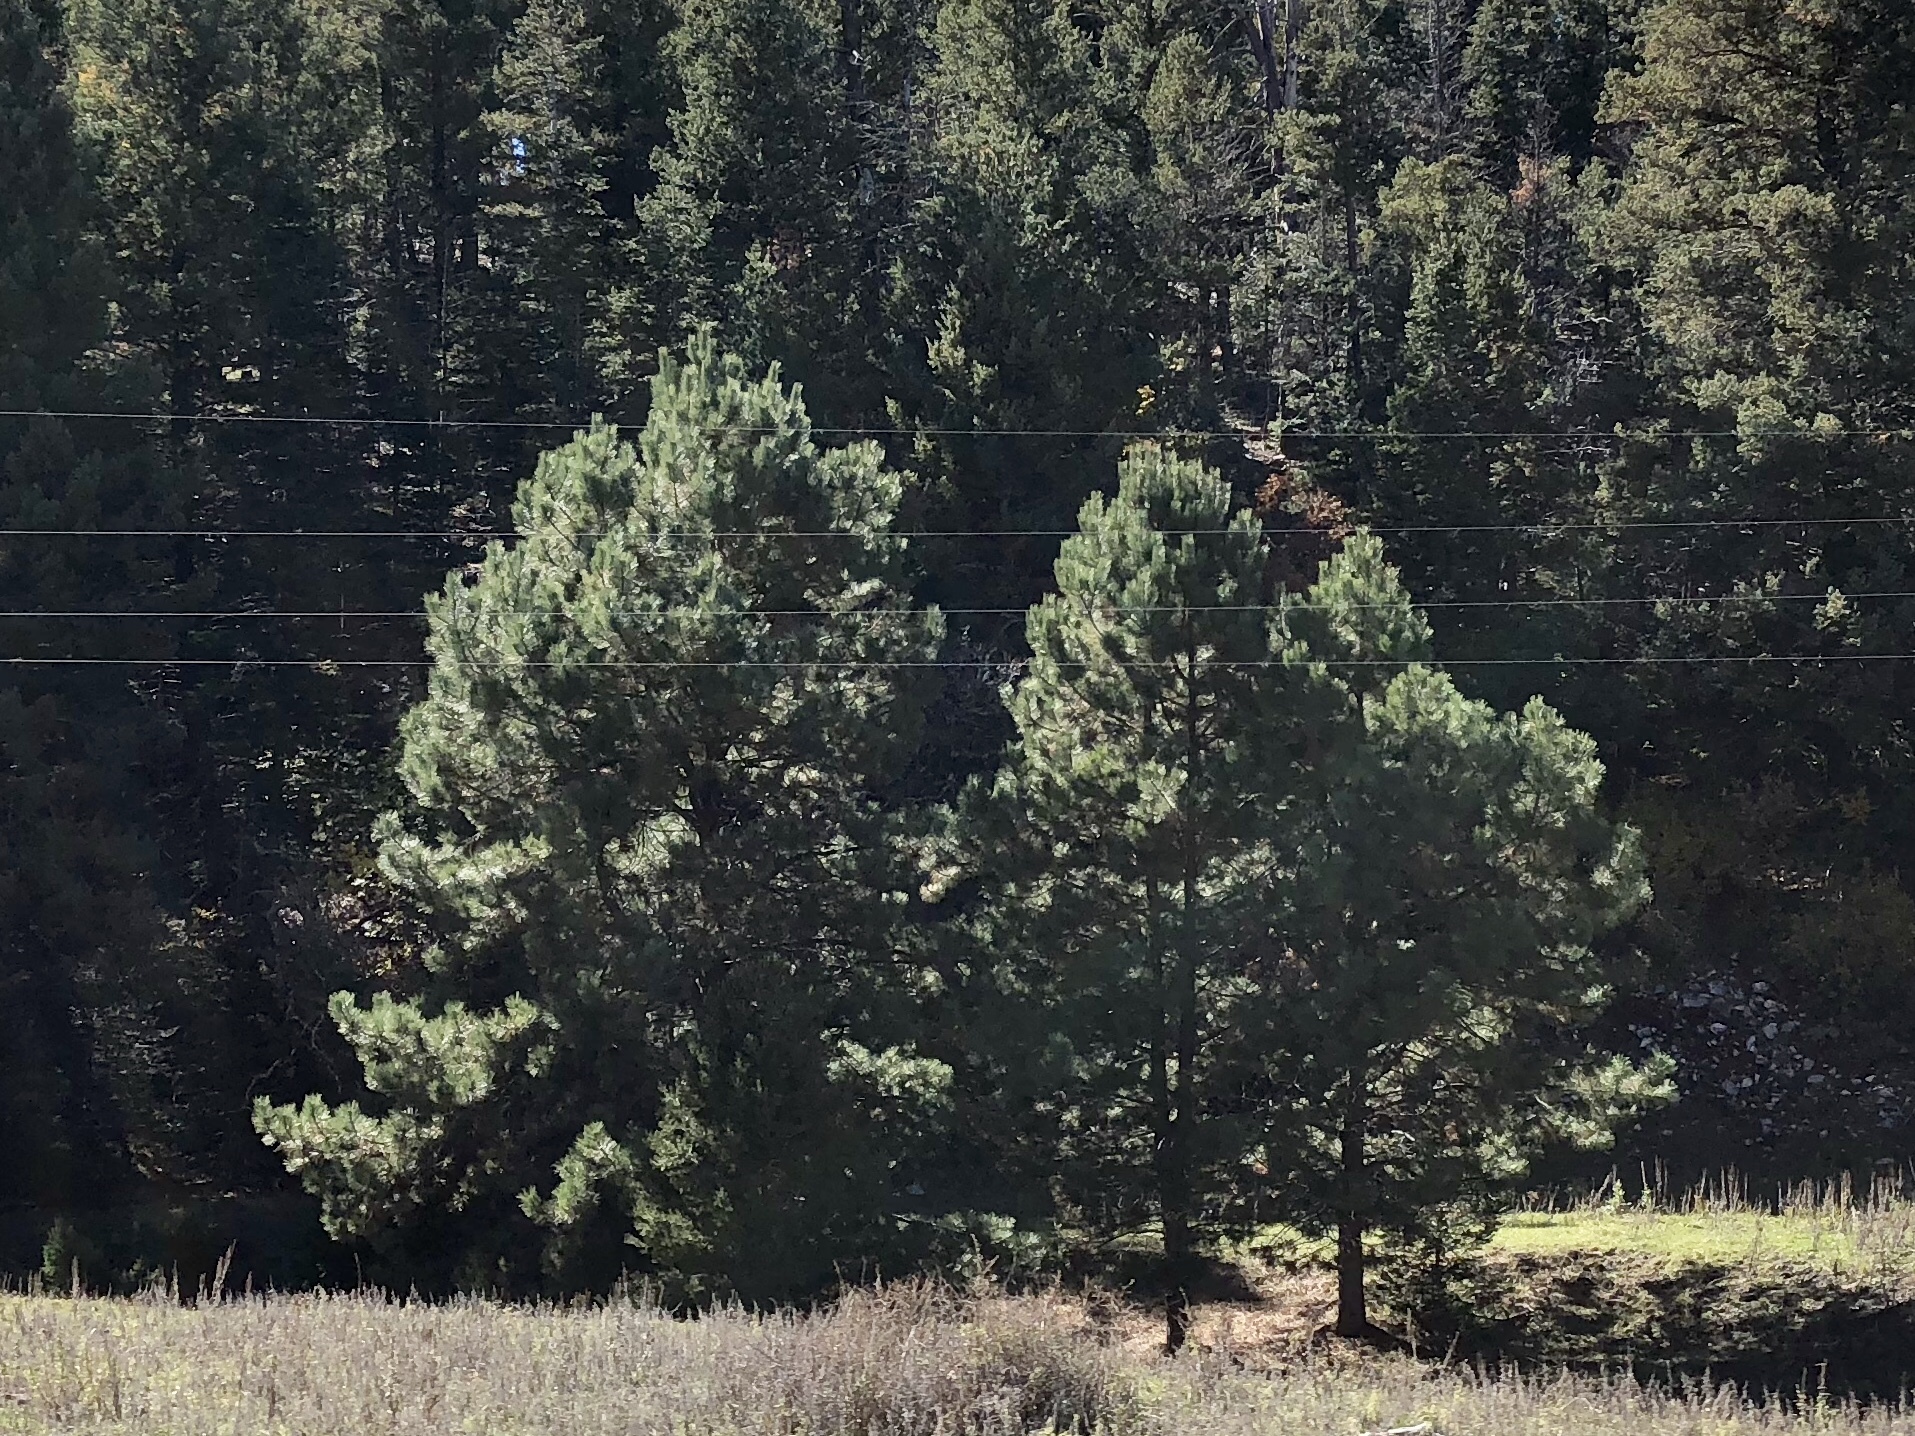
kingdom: Plantae
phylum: Tracheophyta
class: Pinopsida
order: Pinales
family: Pinaceae
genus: Pinus
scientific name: Pinus ponderosa
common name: Western yellow-pine
